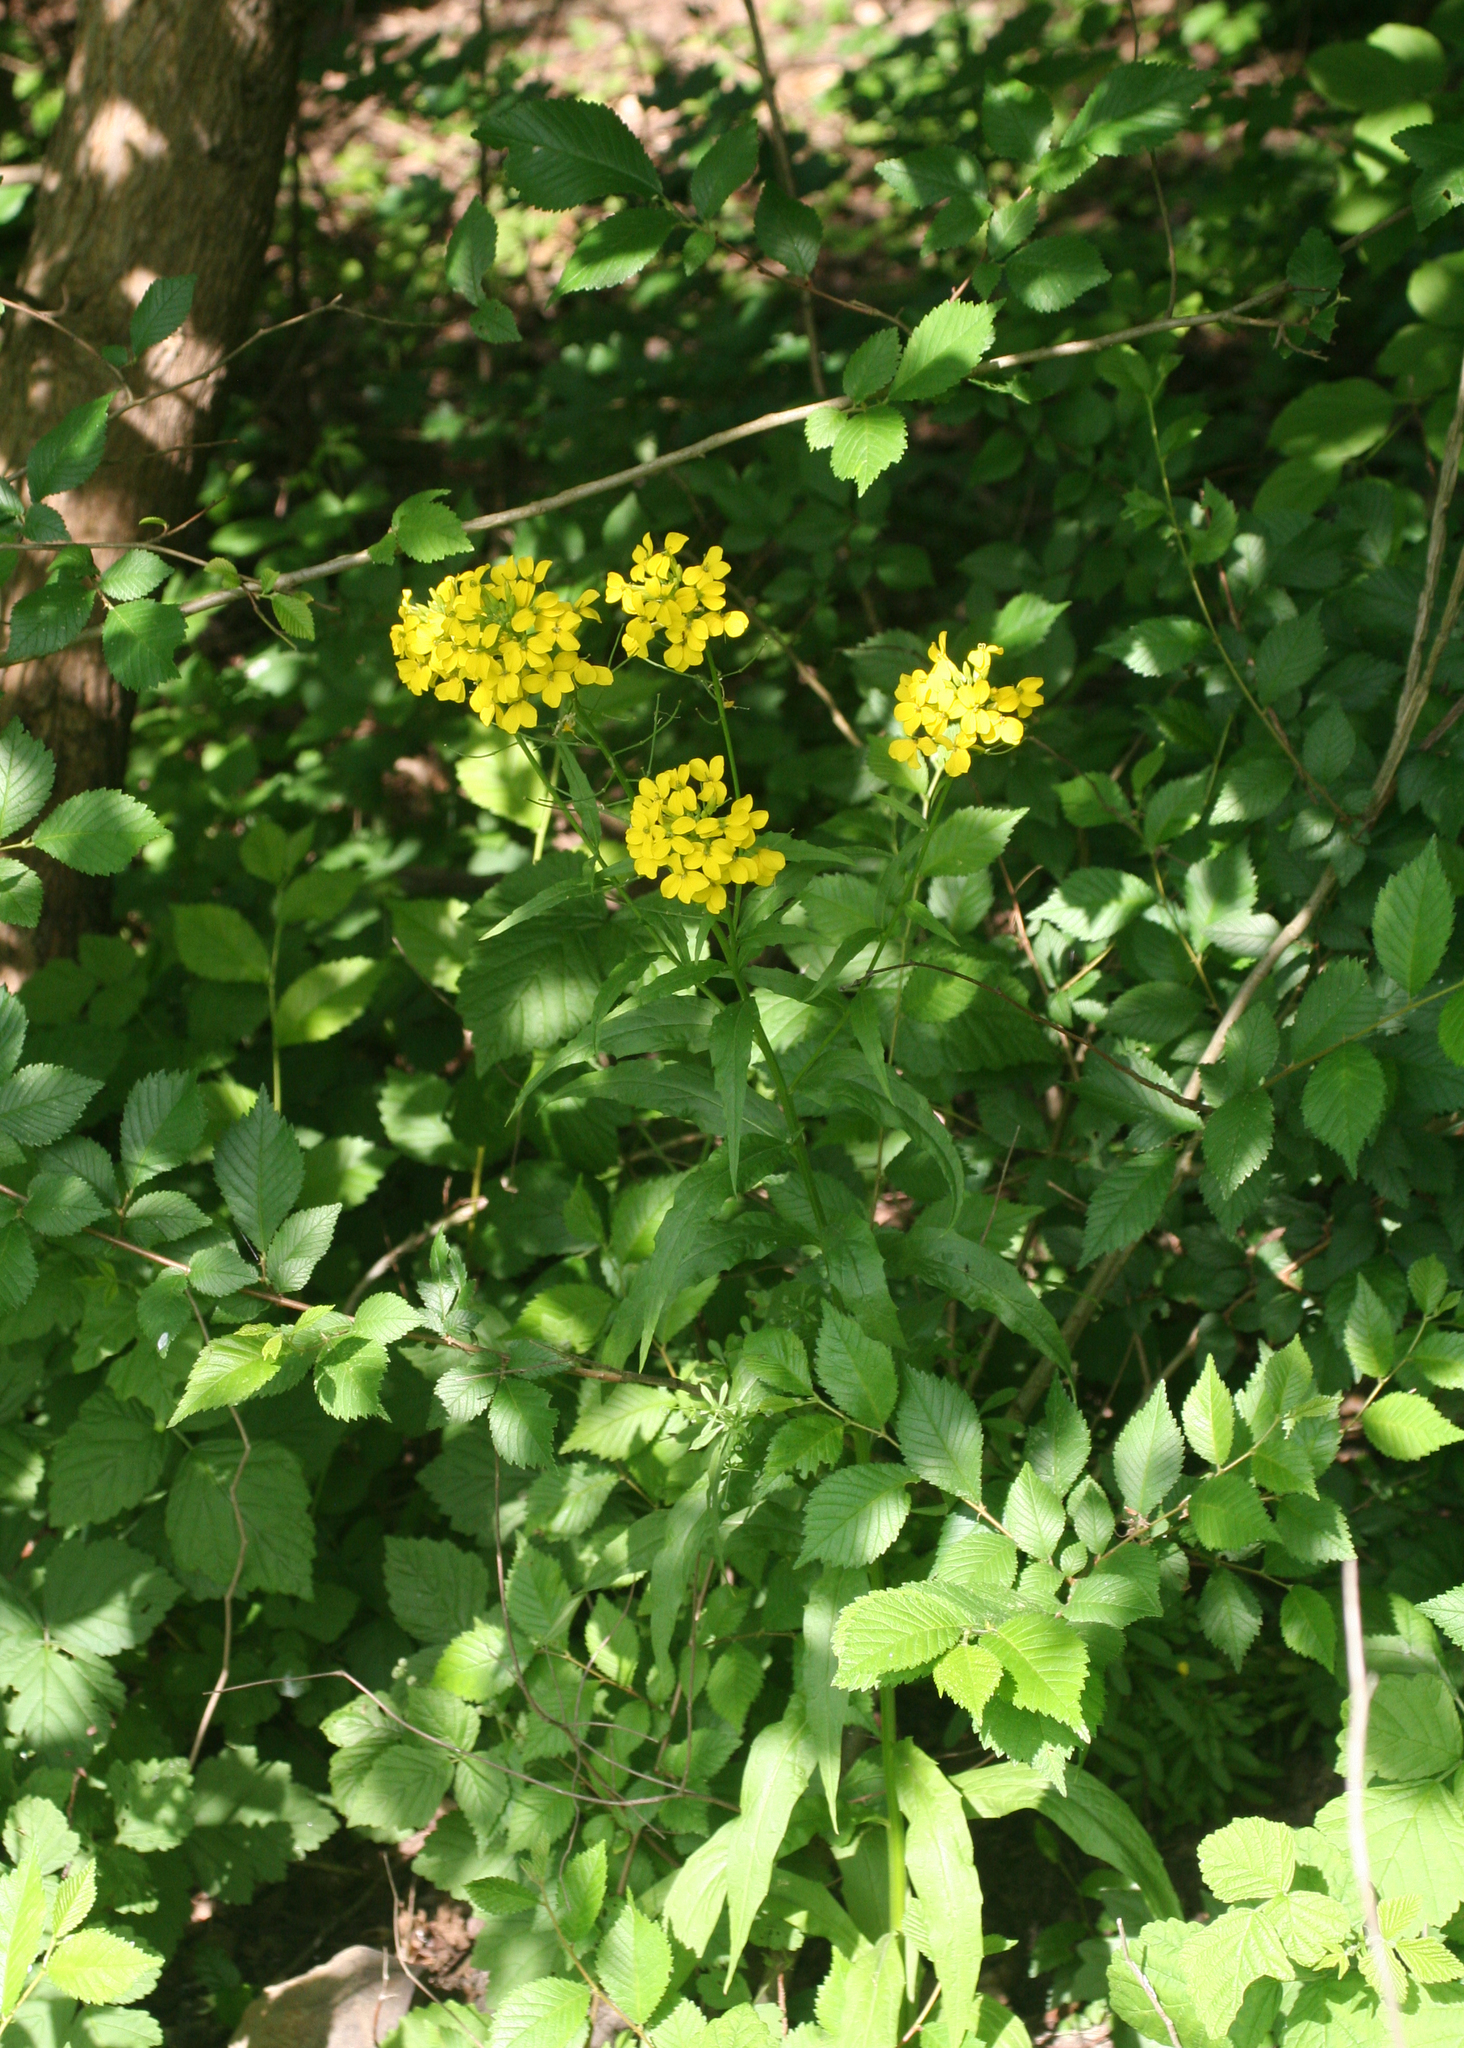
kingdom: Plantae
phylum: Tracheophyta
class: Magnoliopsida
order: Brassicales
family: Brassicaceae
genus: Erysimum
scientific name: Erysimum aureum
